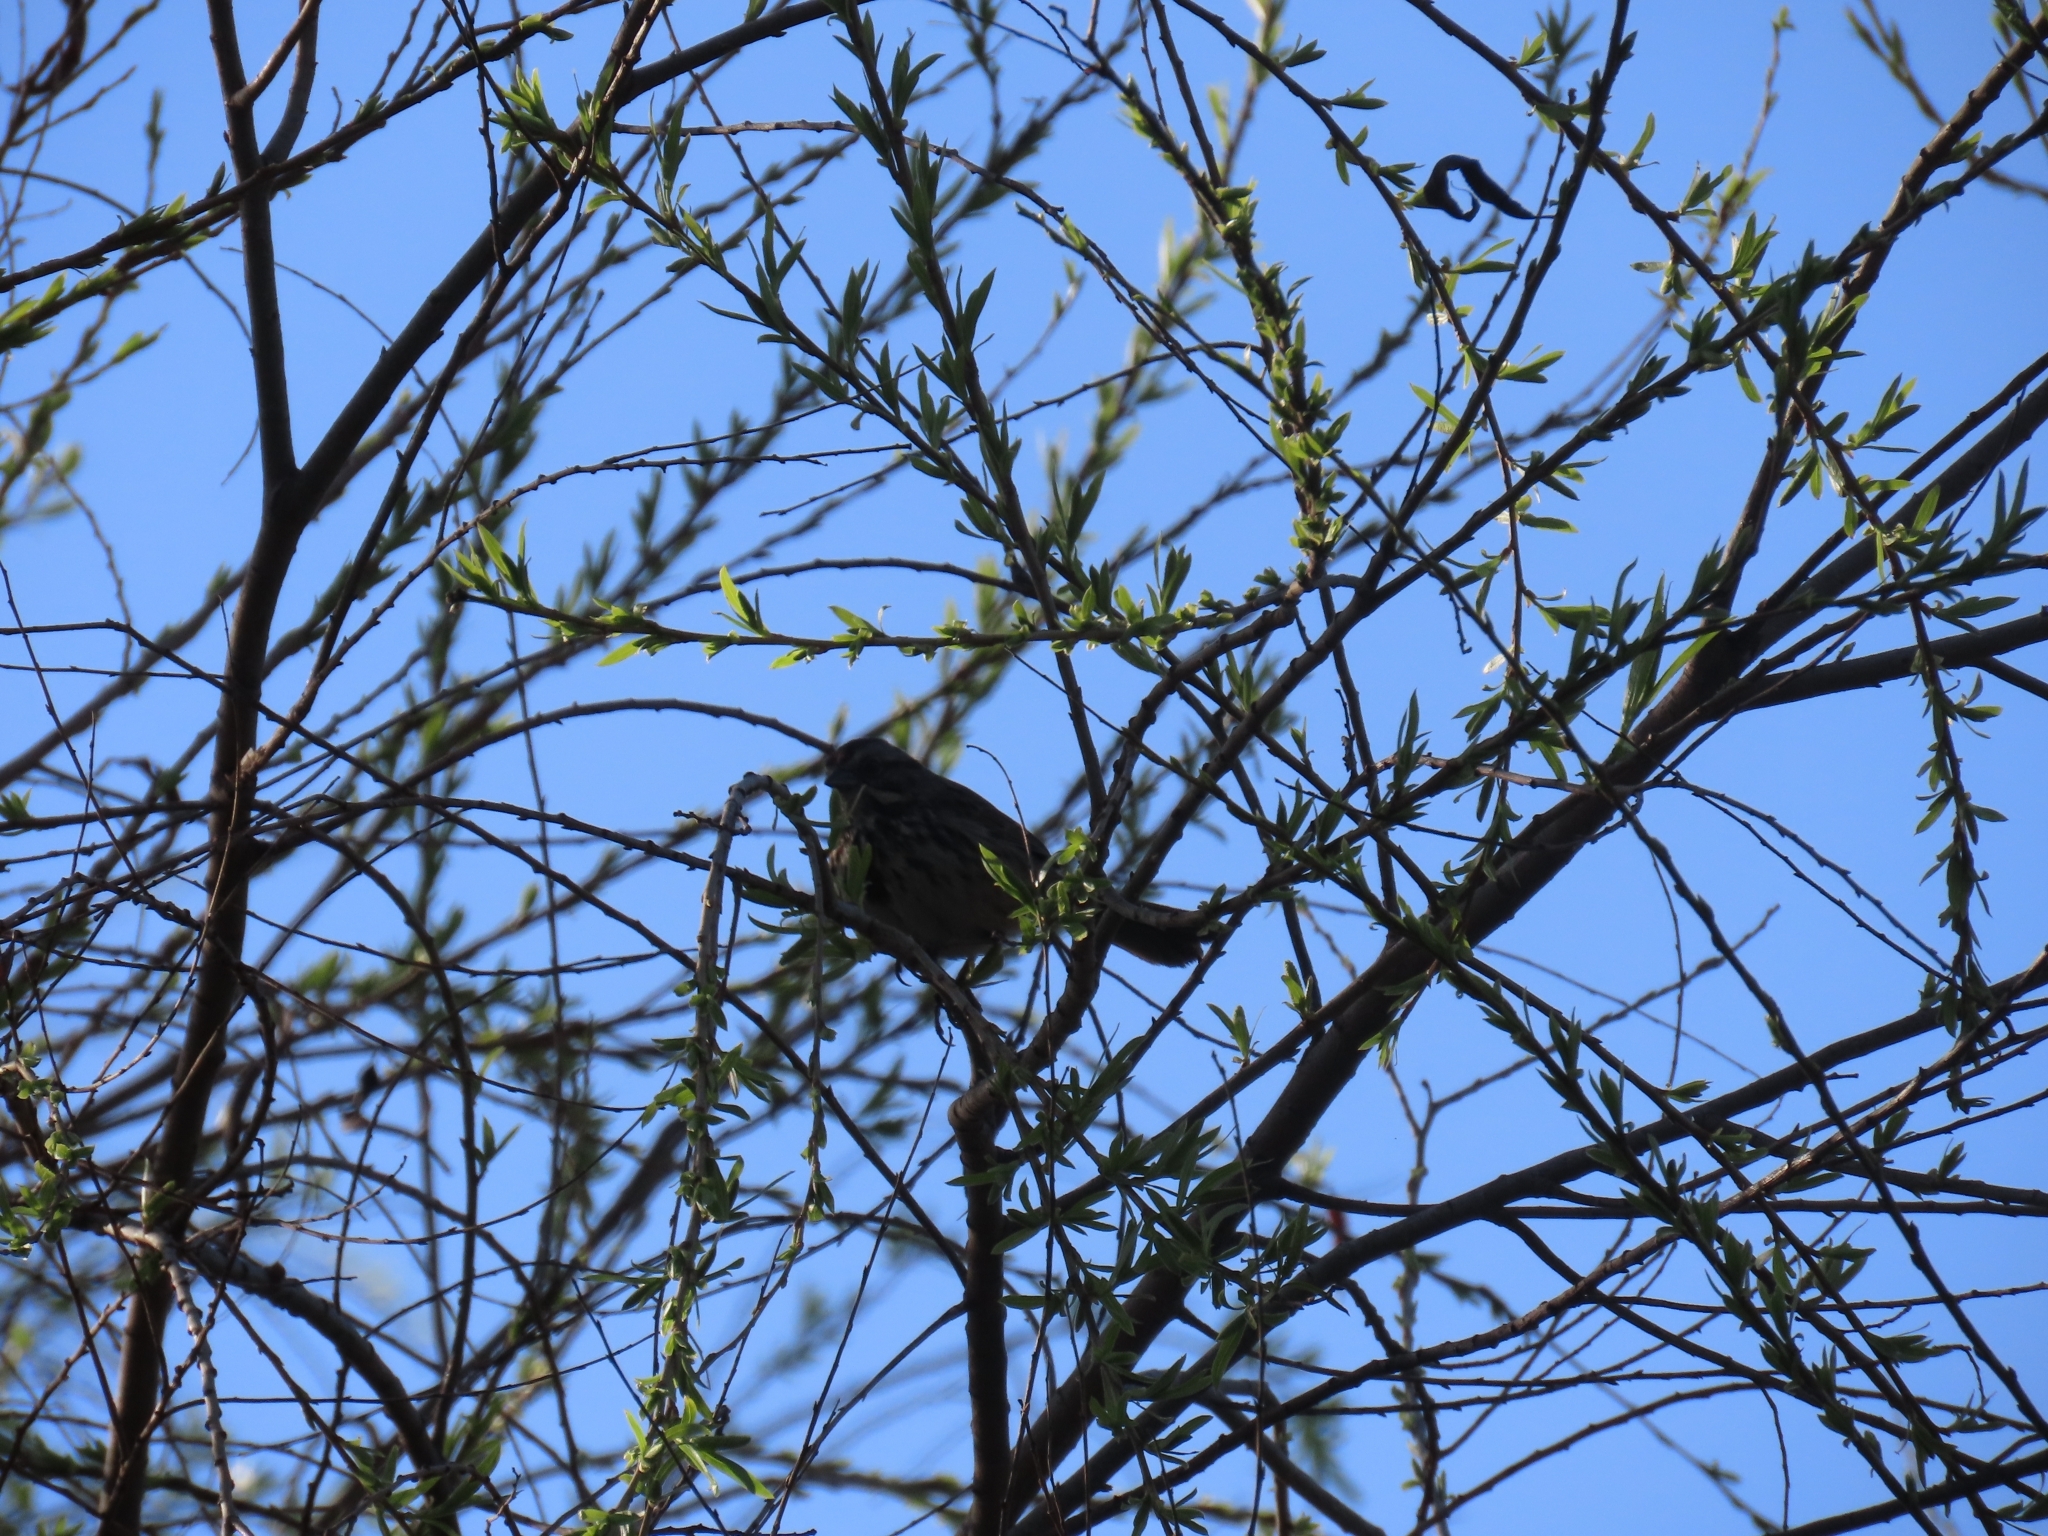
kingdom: Animalia
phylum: Chordata
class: Aves
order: Passeriformes
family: Passerellidae
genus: Melospiza
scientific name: Melospiza melodia
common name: Song sparrow
